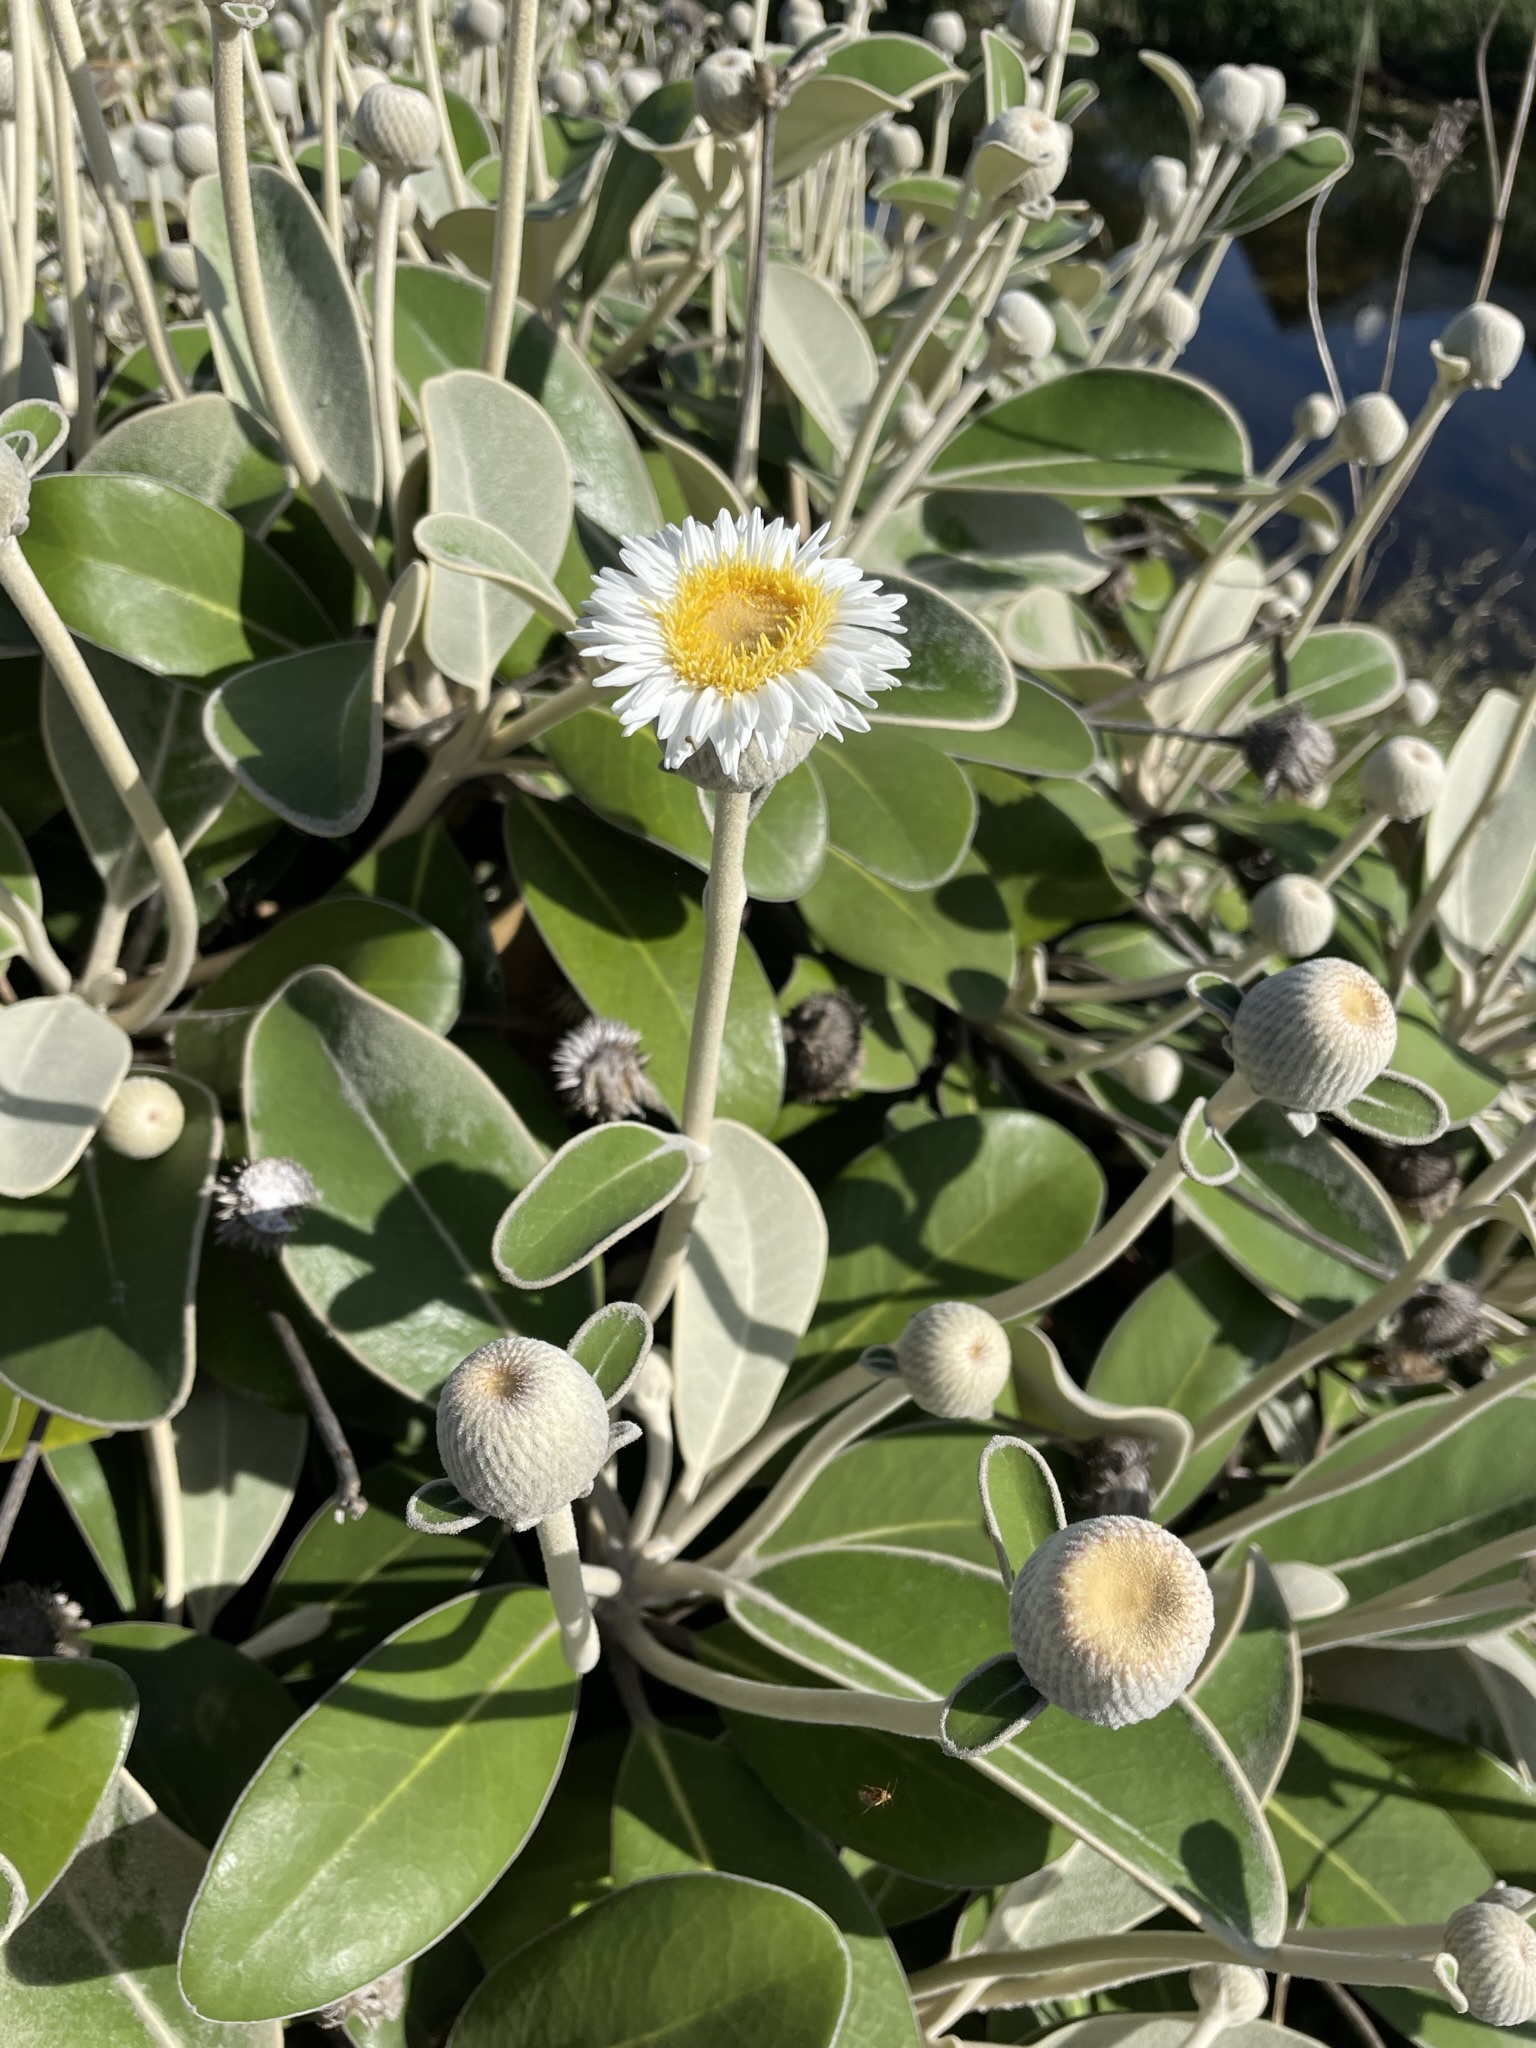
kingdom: Plantae
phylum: Tracheophyta
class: Magnoliopsida
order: Asterales
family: Asteraceae
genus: Pachystegia
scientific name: Pachystegia insignis
